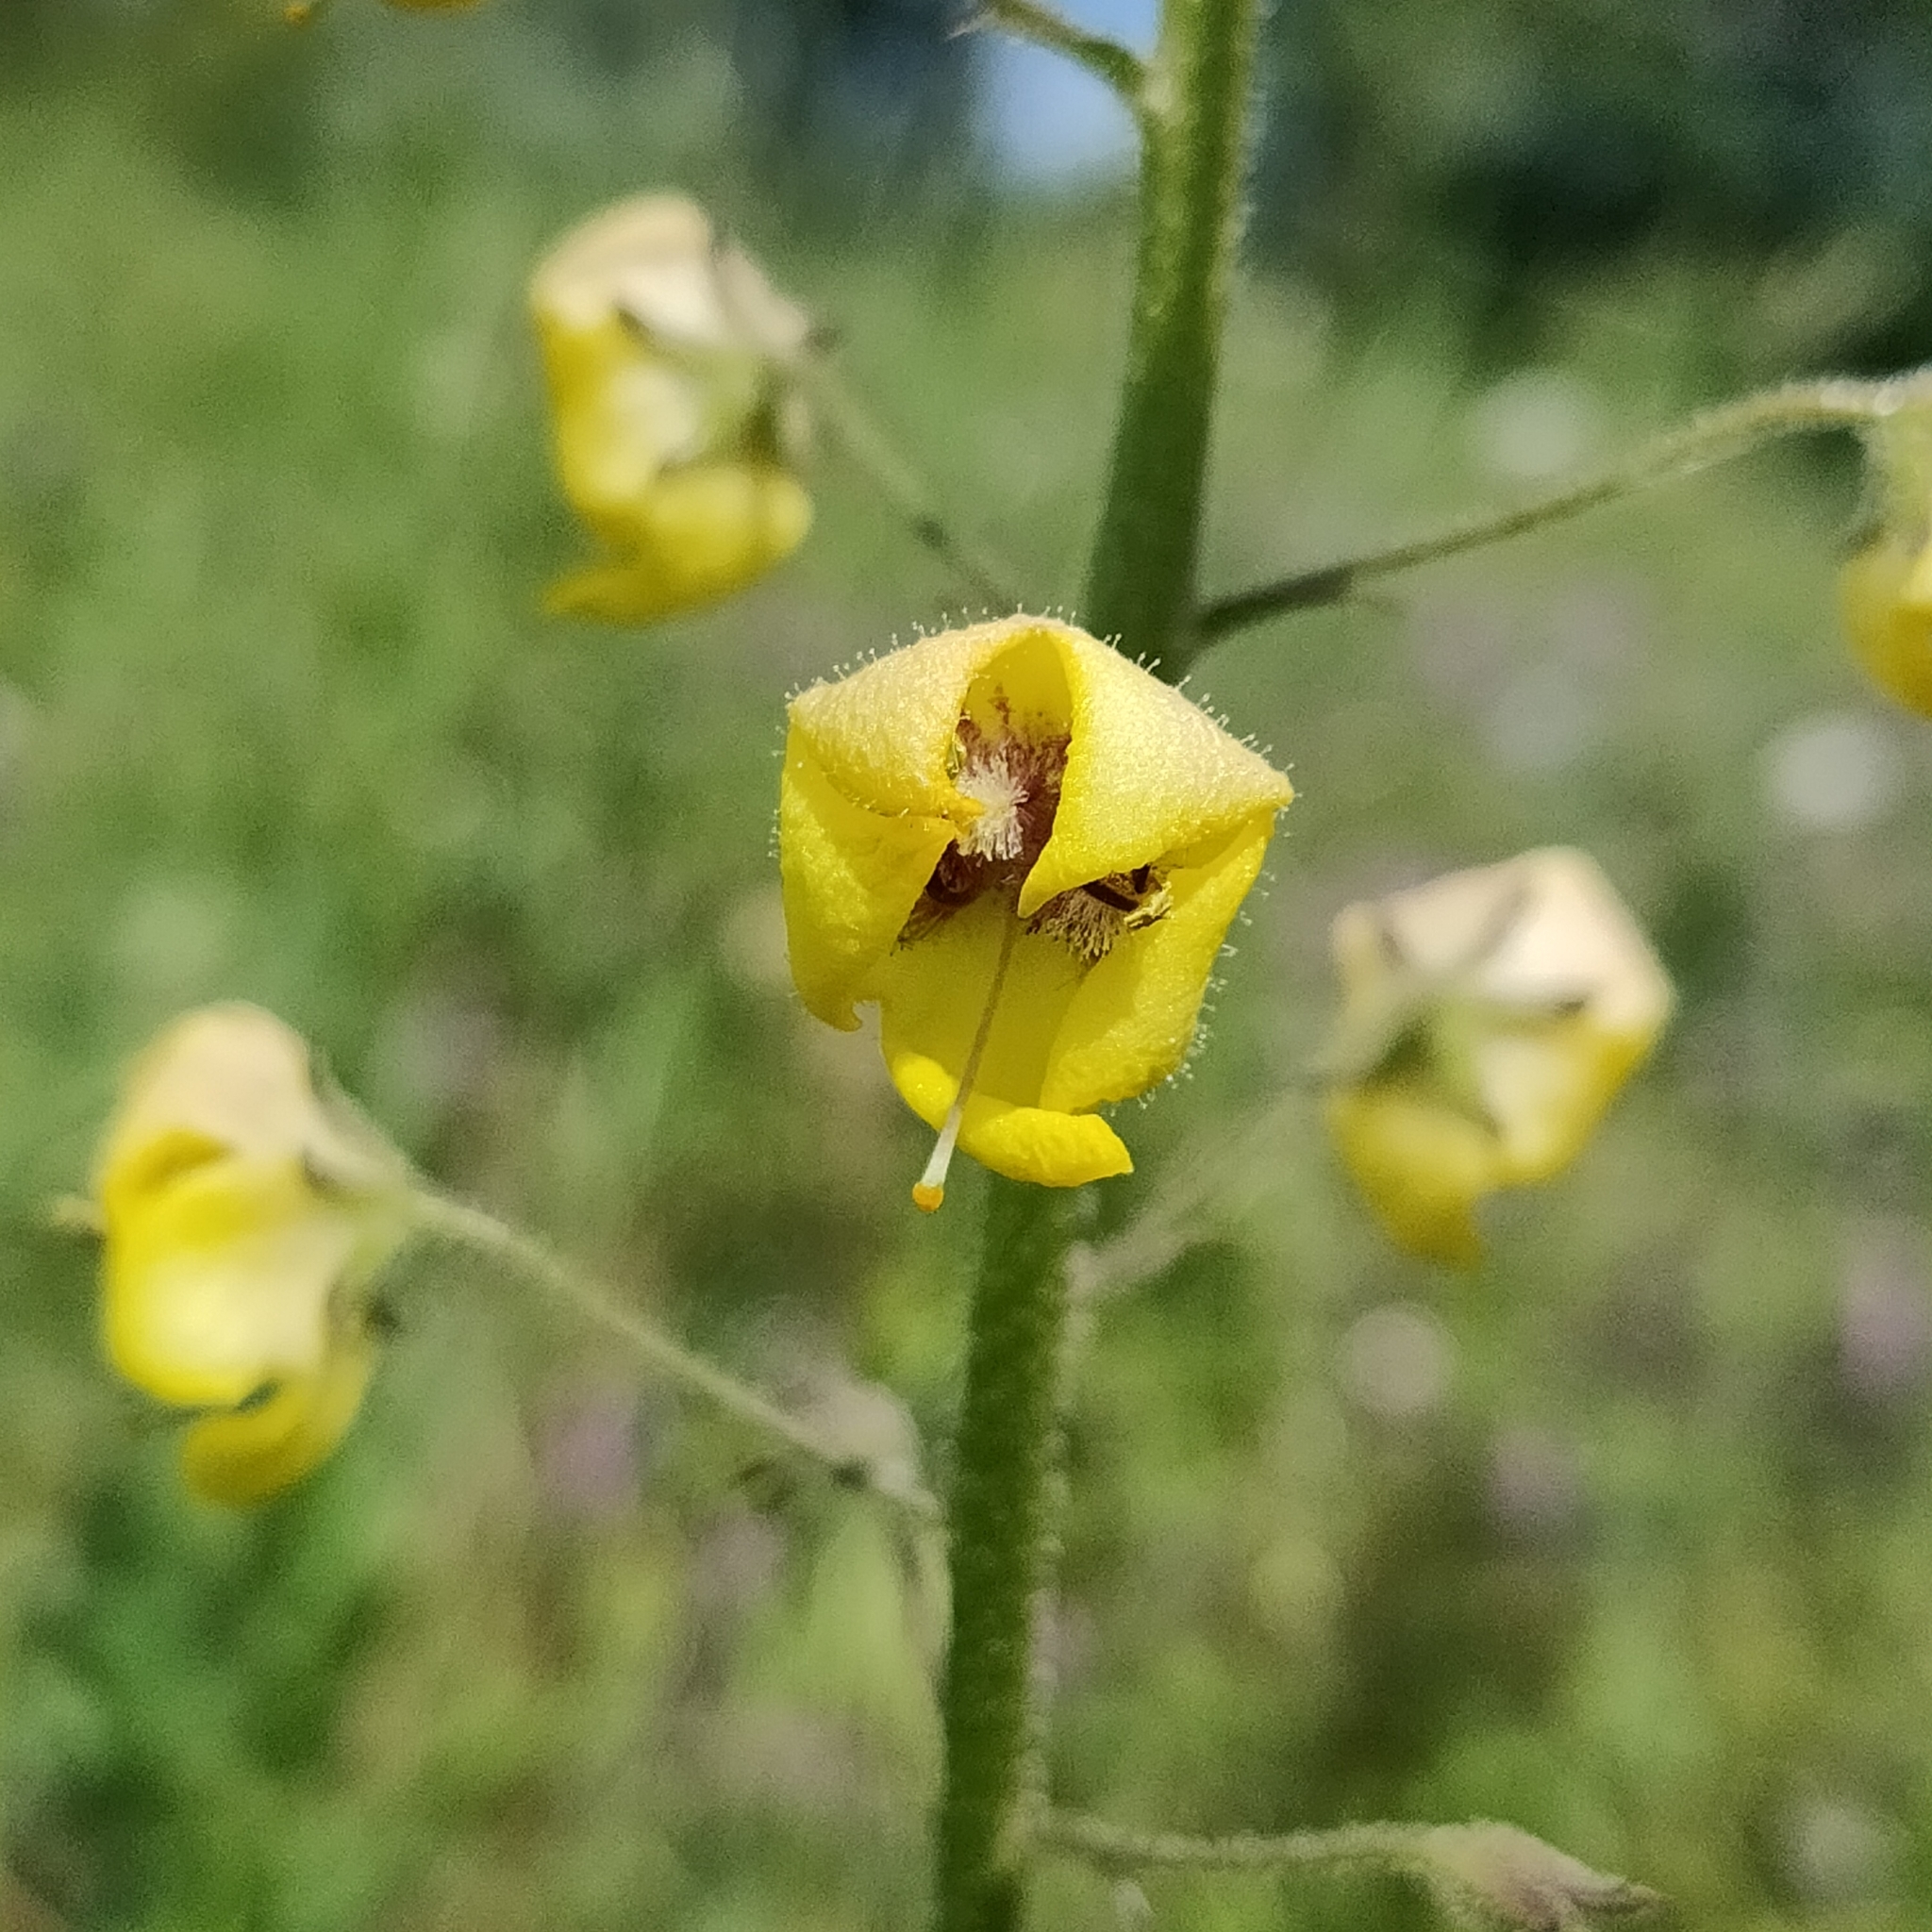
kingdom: Plantae
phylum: Tracheophyta
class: Magnoliopsida
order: Lamiales
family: Scrophulariaceae
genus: Verbascum
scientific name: Verbascum blattaria
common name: Moth mullein
